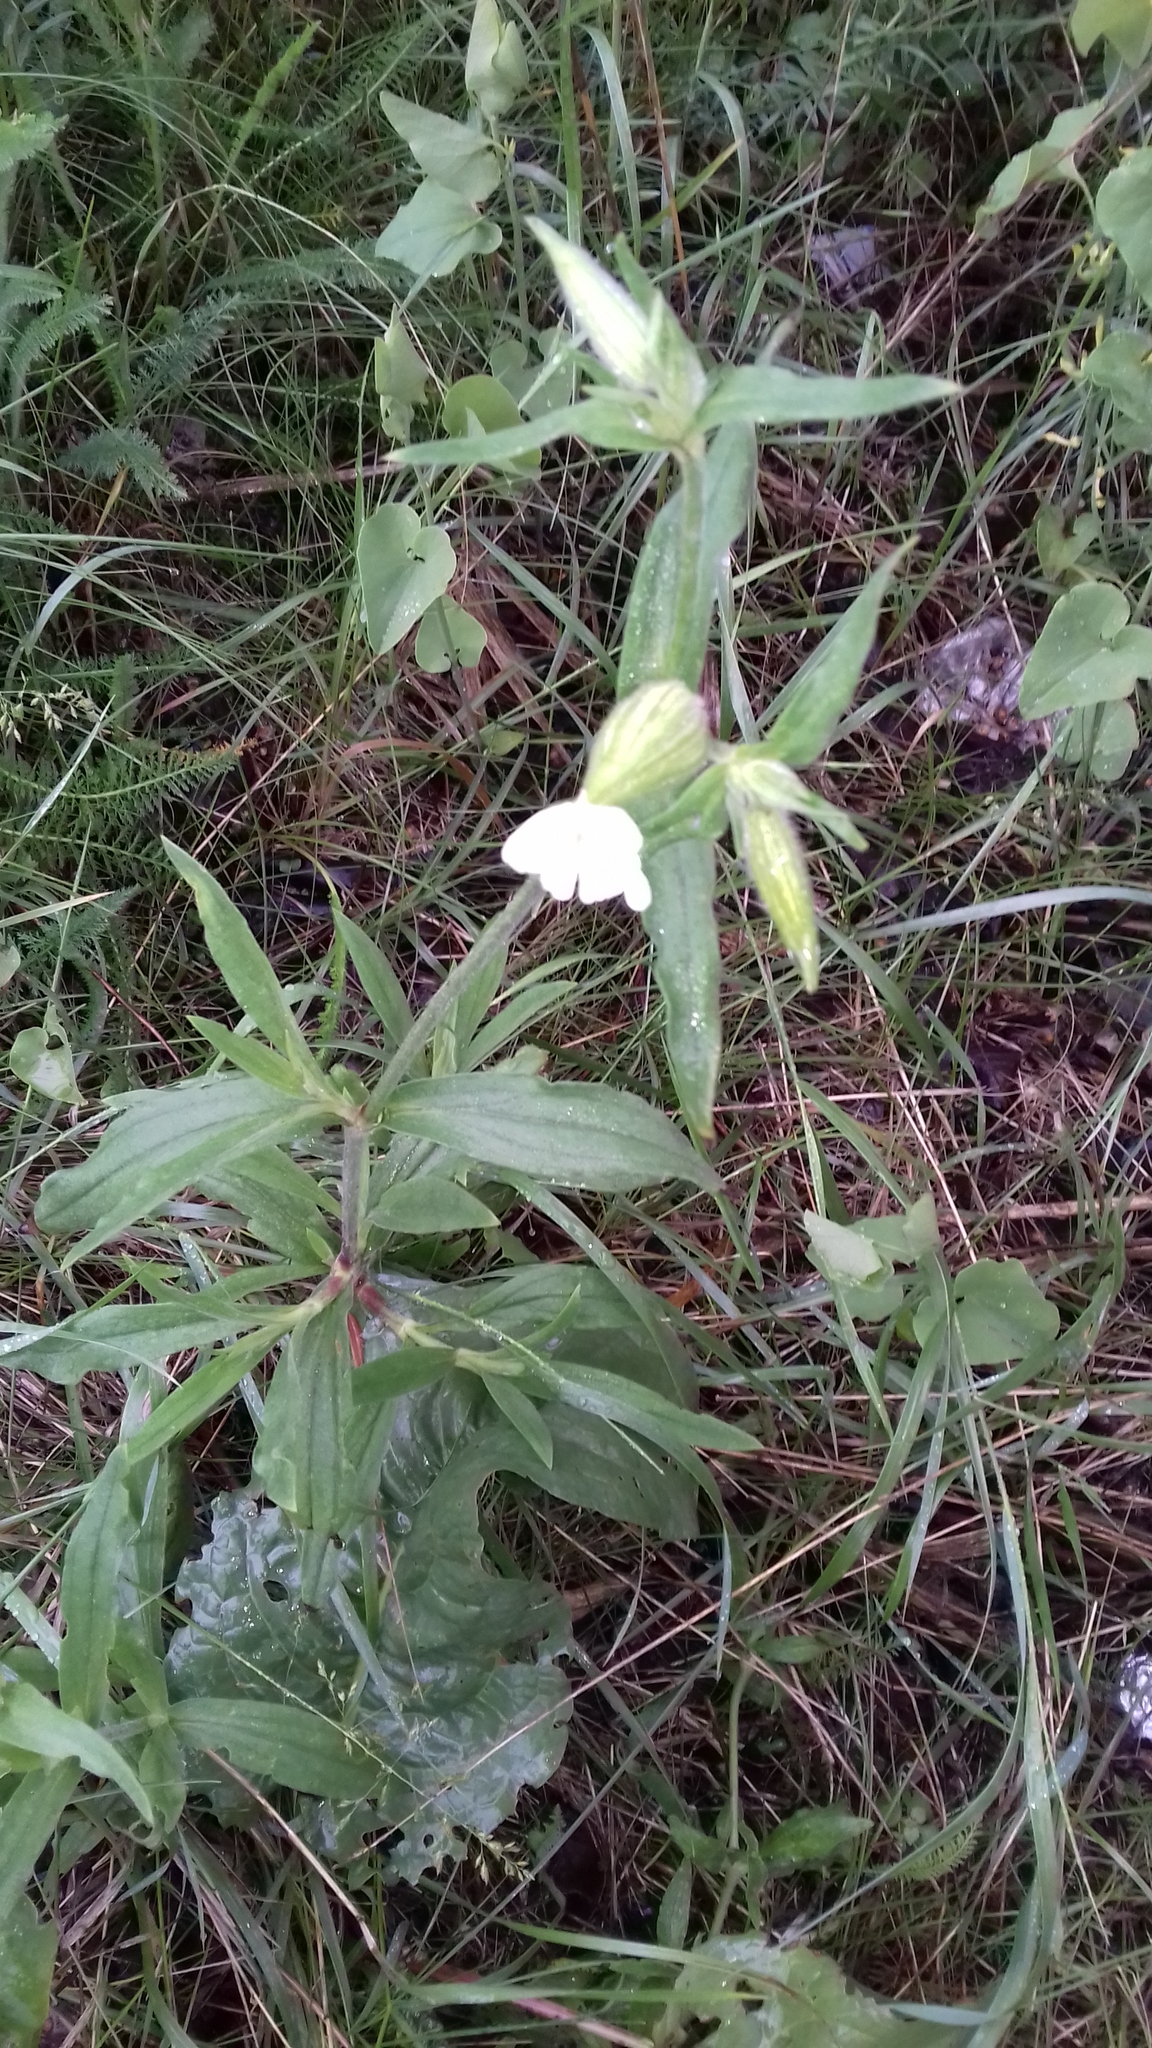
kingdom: Plantae
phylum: Tracheophyta
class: Magnoliopsida
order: Caryophyllales
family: Caryophyllaceae
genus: Silene
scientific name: Silene latifolia
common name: White campion
